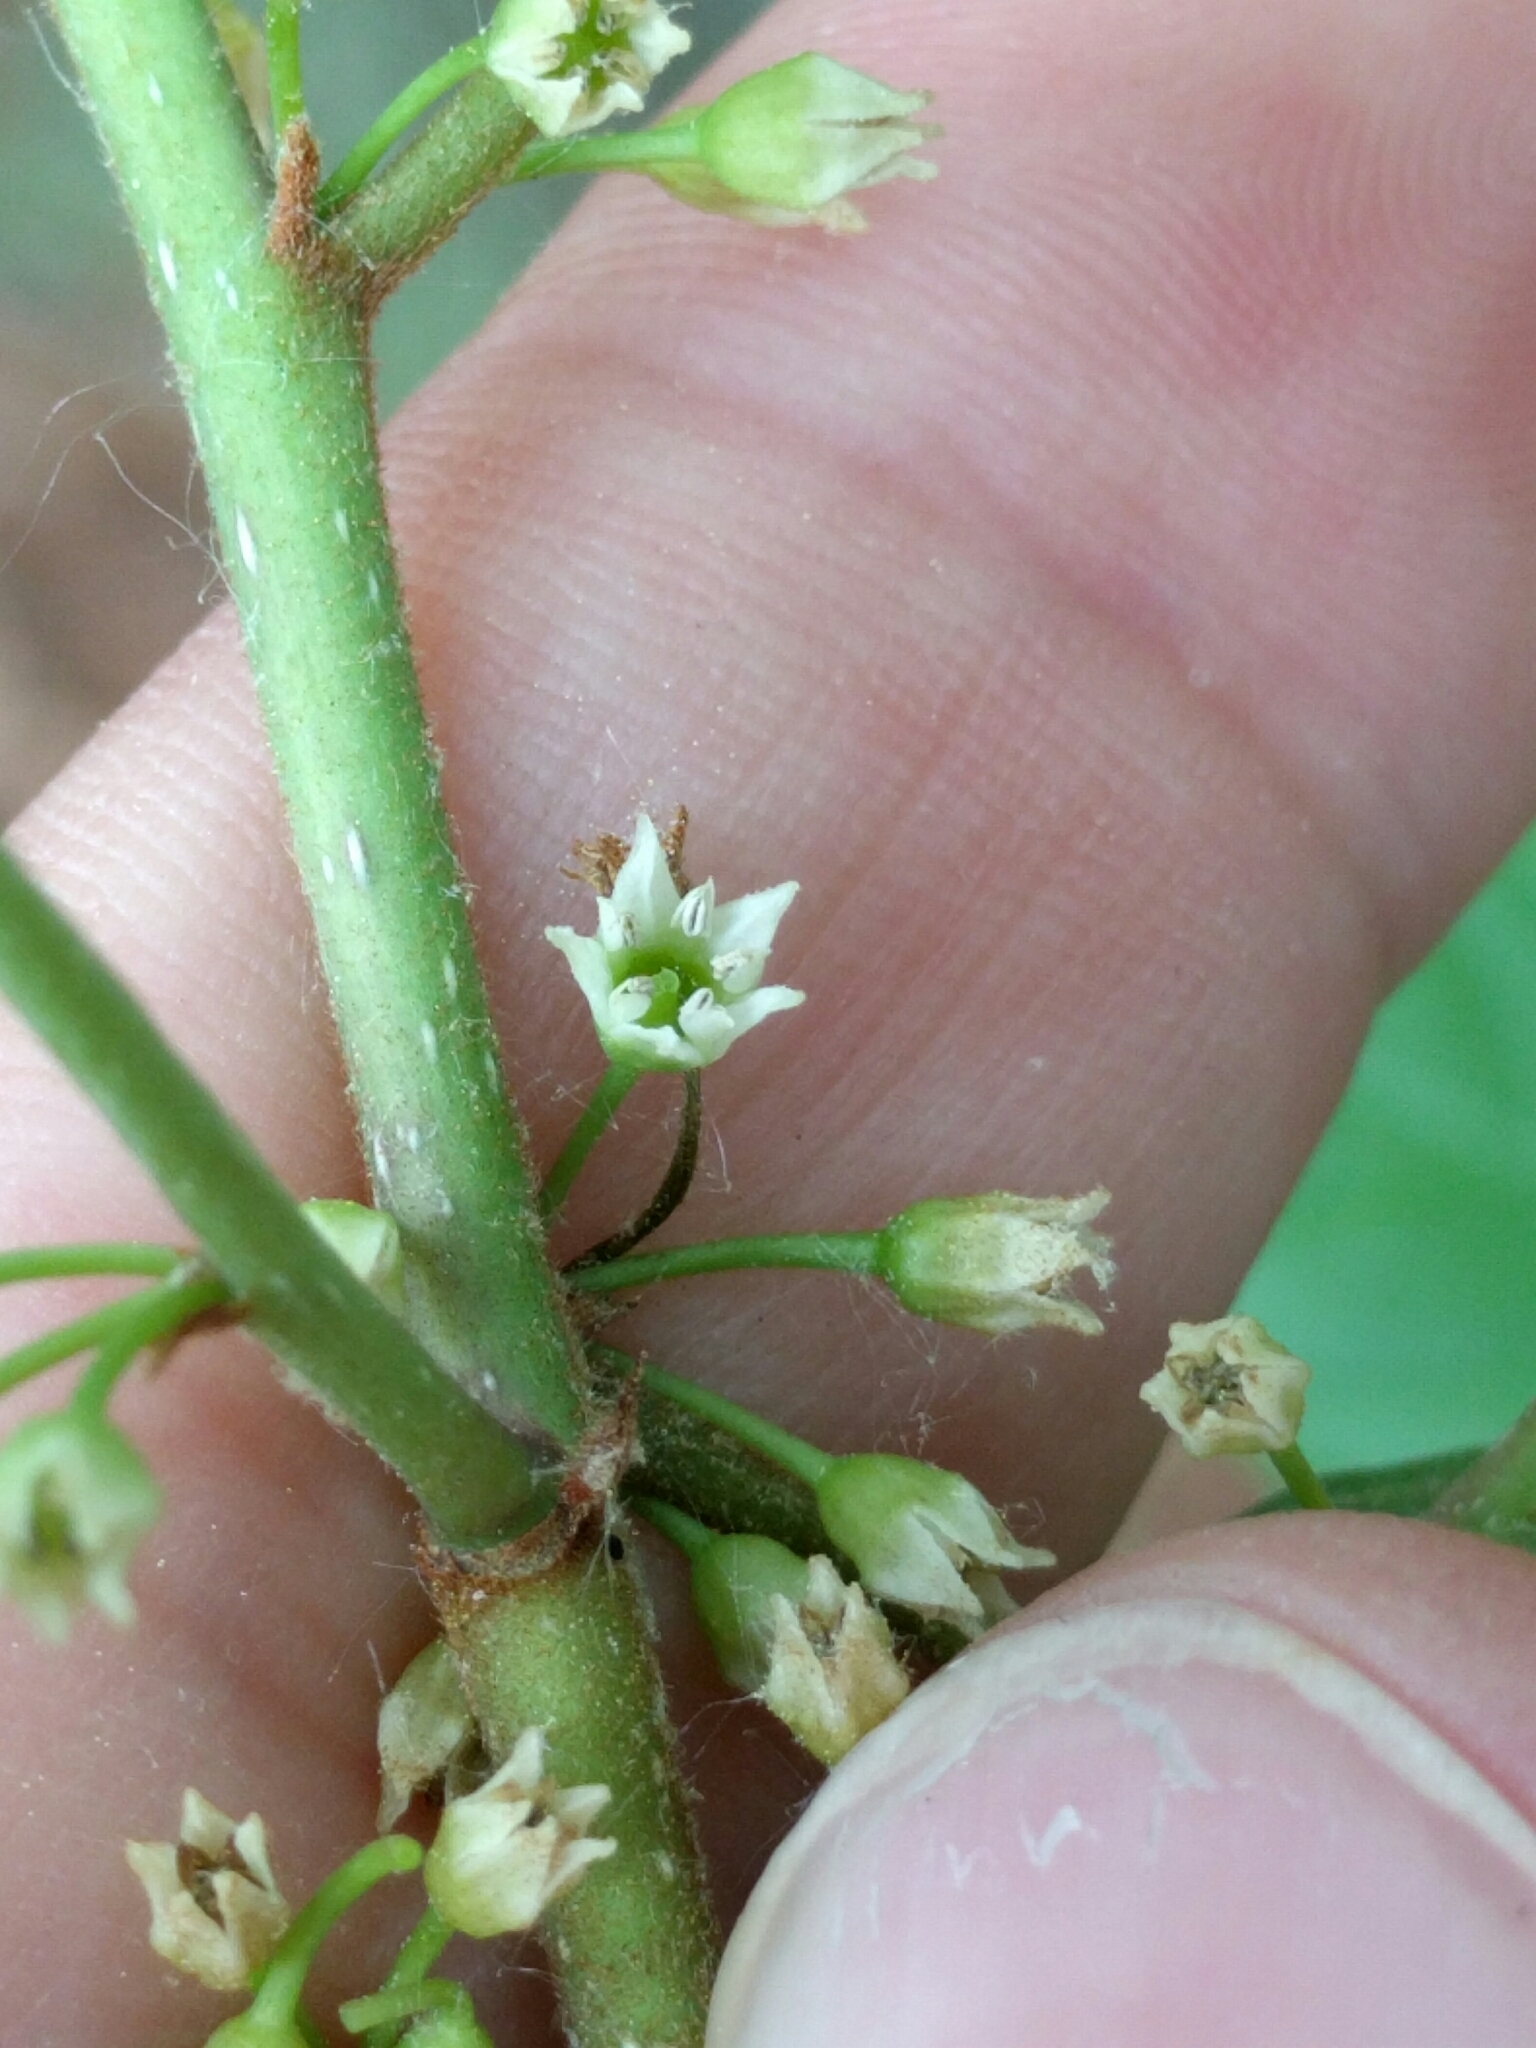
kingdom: Plantae
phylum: Tracheophyta
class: Magnoliopsida
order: Rosales
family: Rhamnaceae
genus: Frangula
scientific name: Frangula alnus
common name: Alder buckthorn
